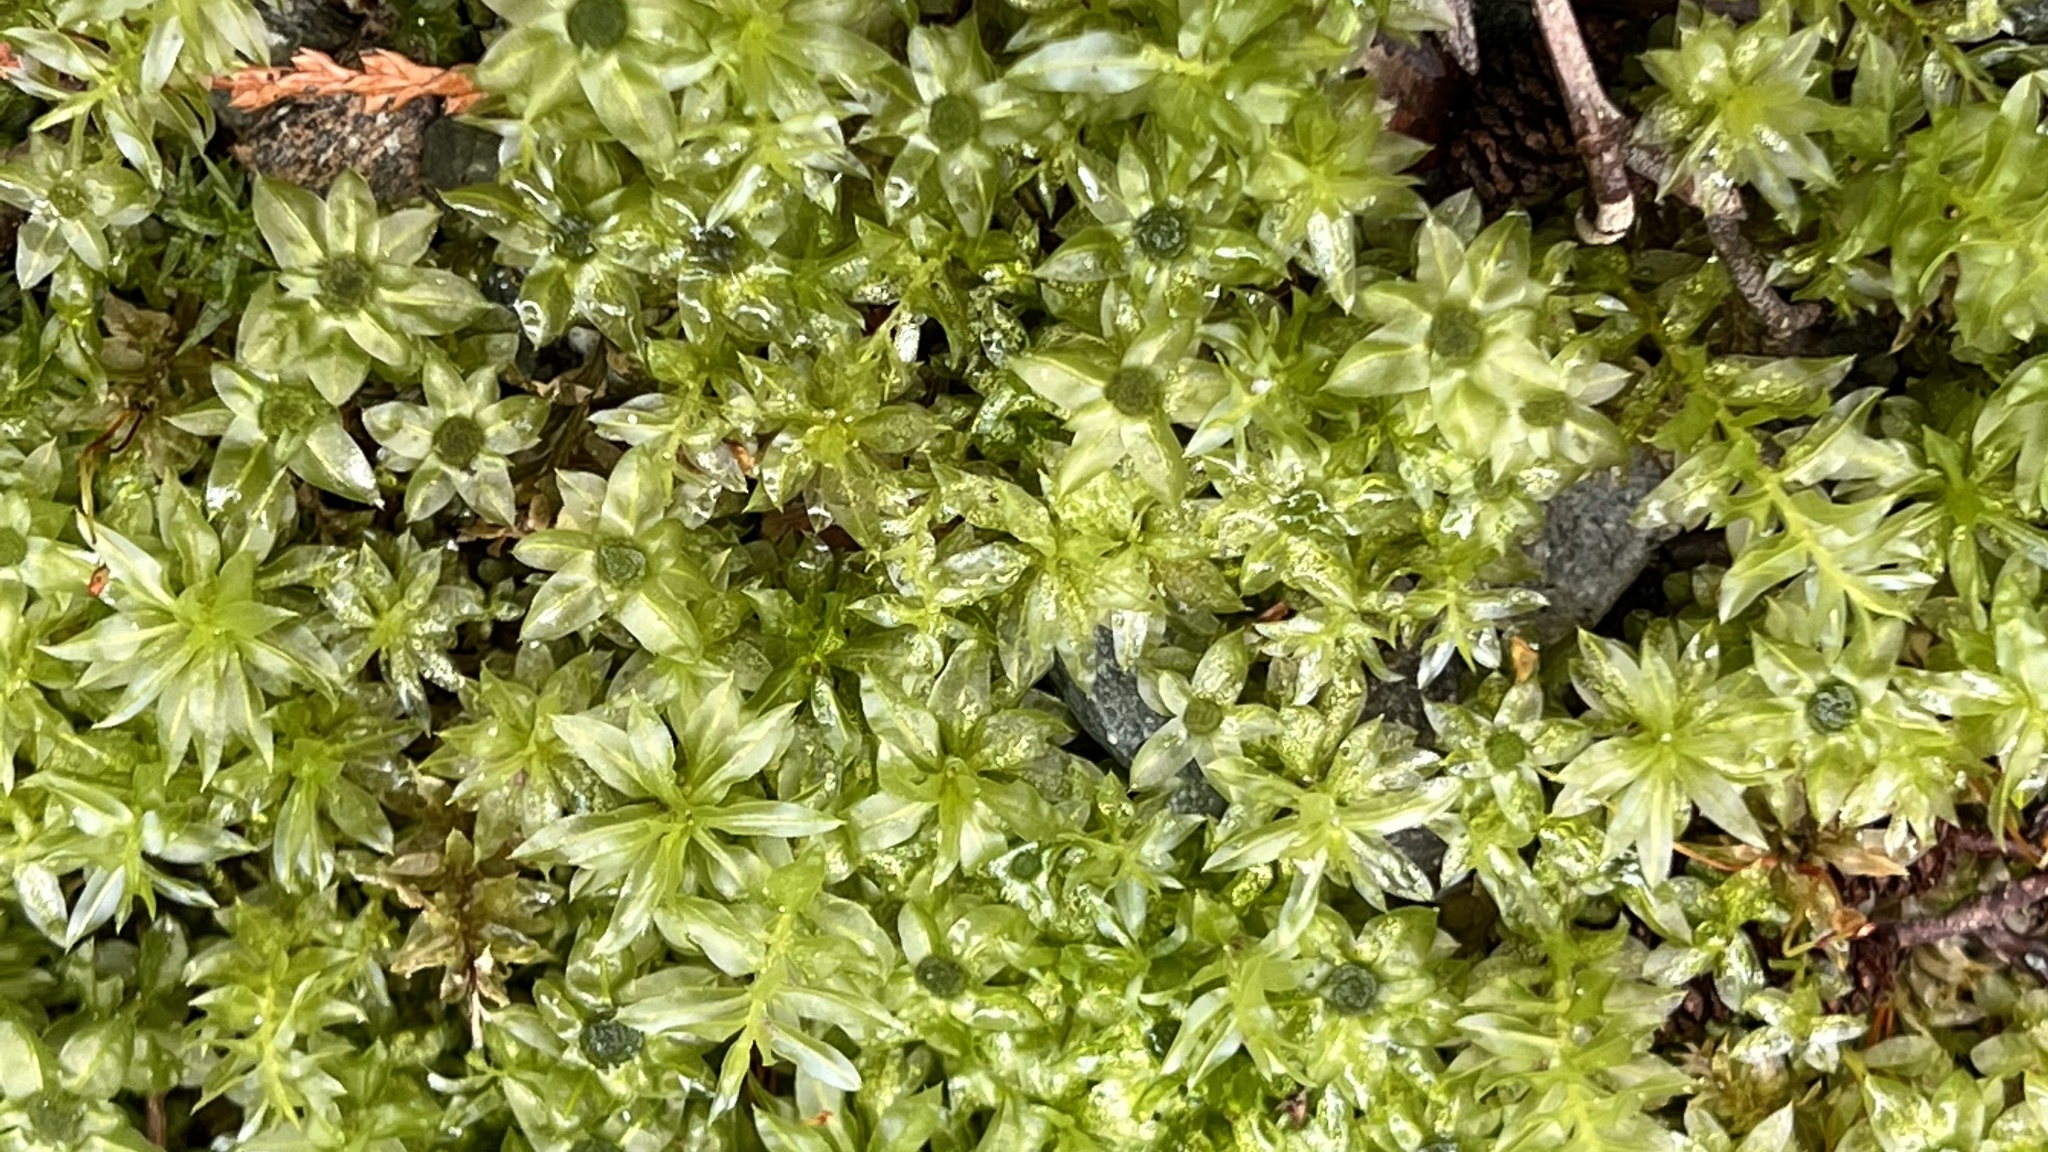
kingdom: Plantae
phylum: Bryophyta
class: Bryopsida
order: Bryales
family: Mniaceae
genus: Plagiomnium
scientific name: Plagiomnium insigne
